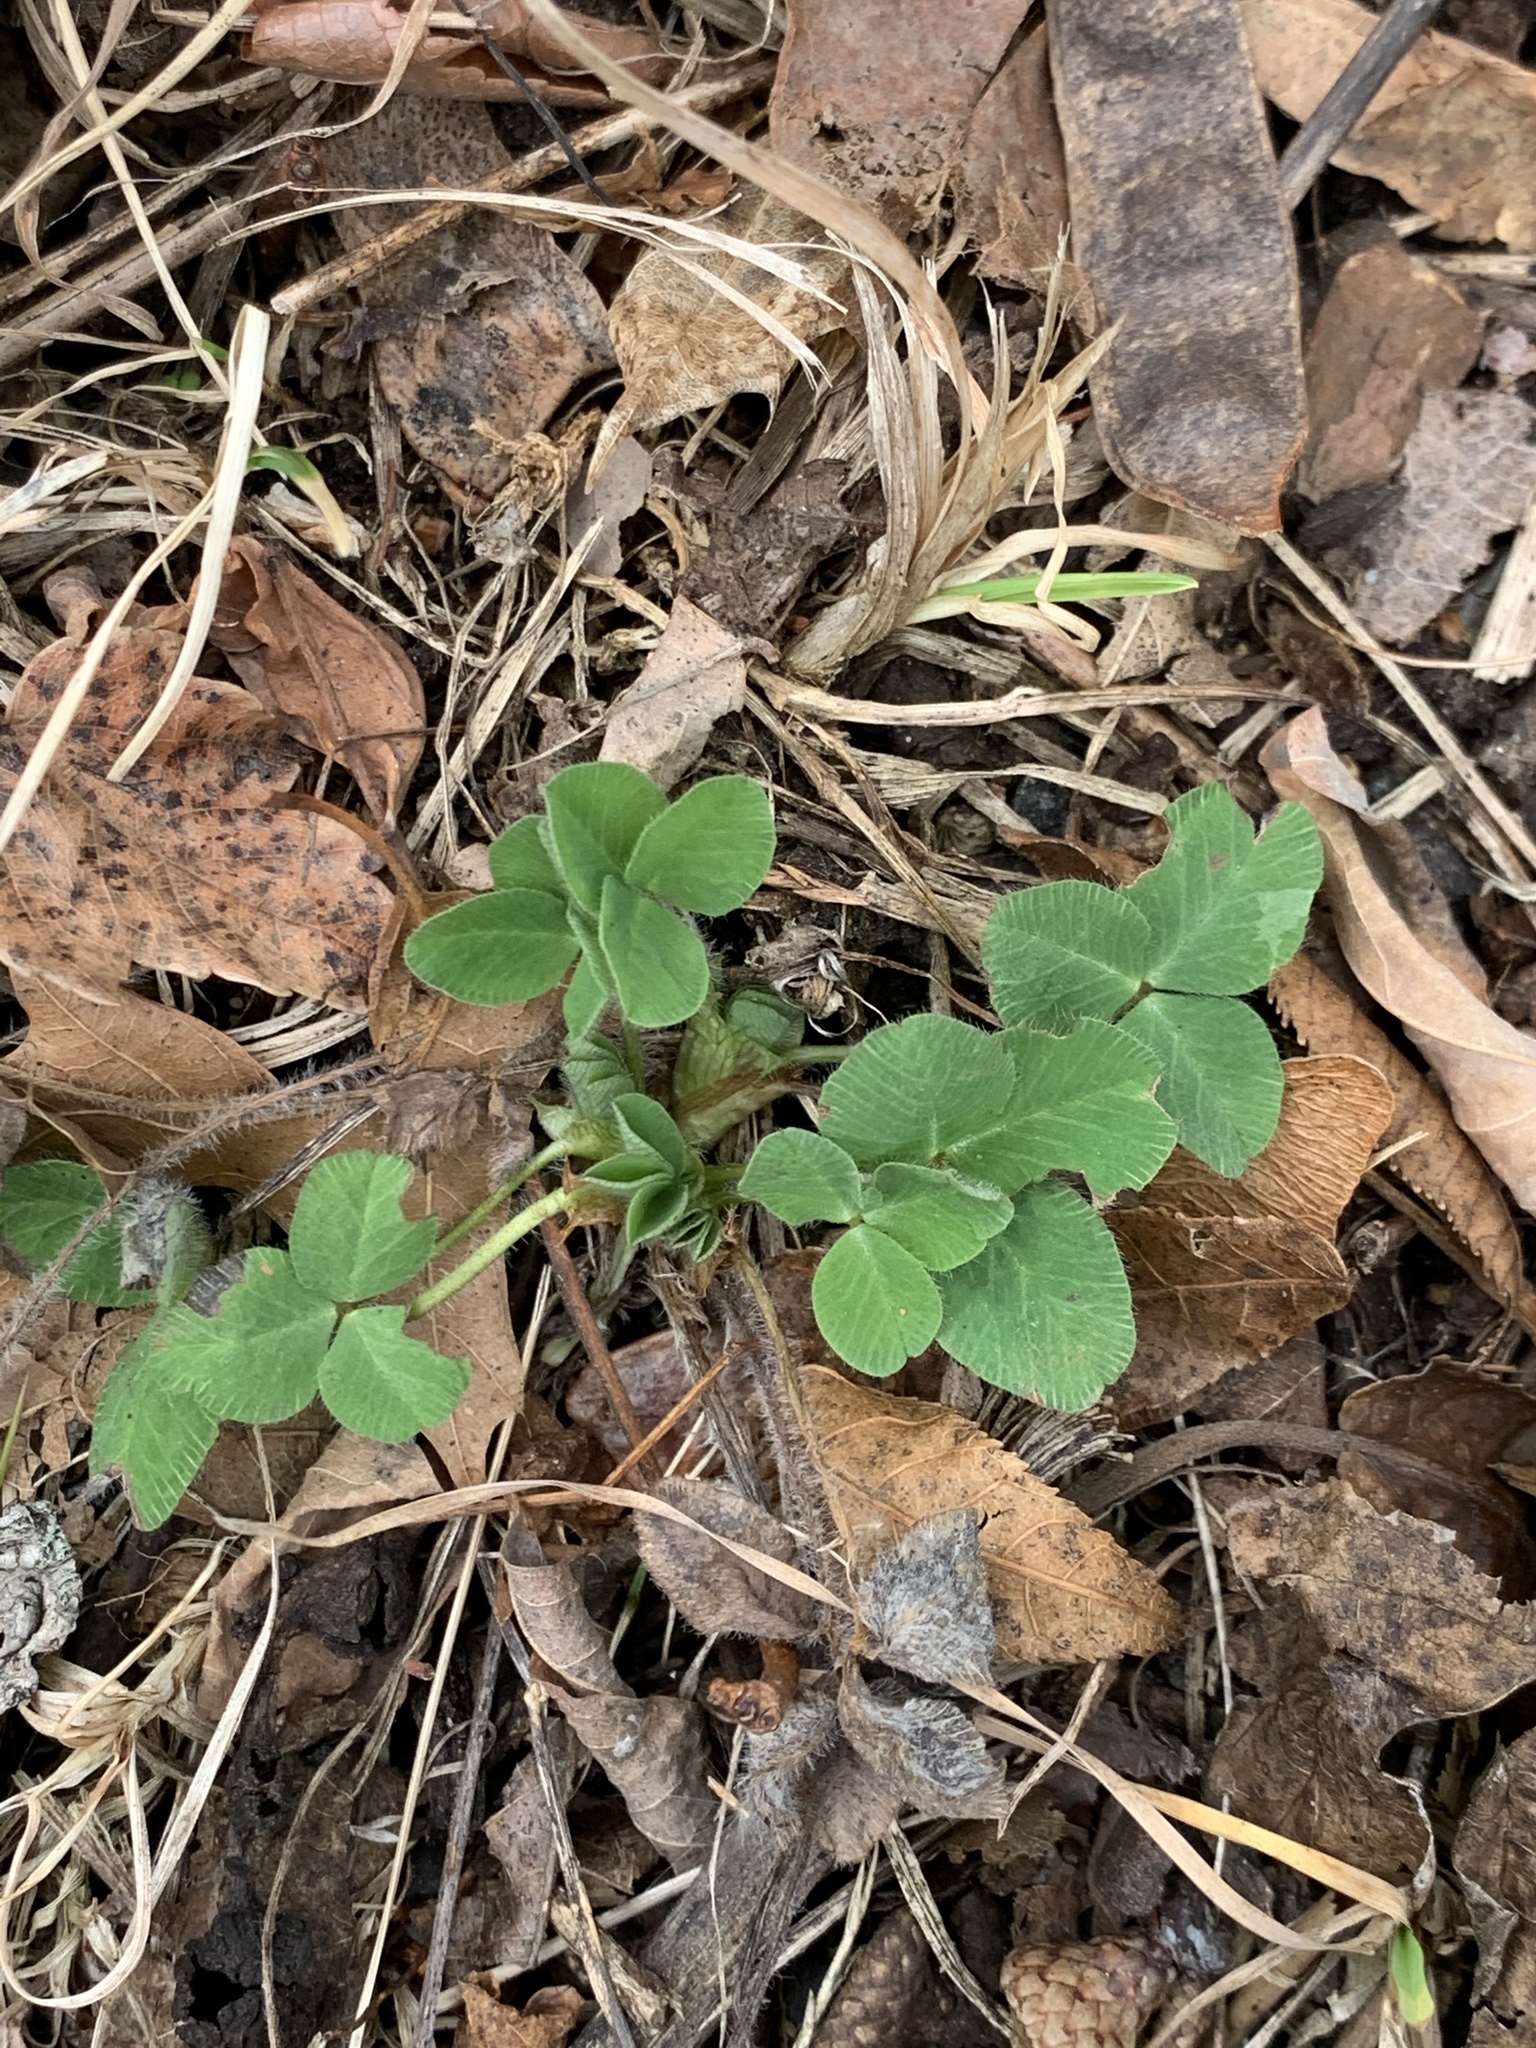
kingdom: Plantae
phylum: Tracheophyta
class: Magnoliopsida
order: Fabales
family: Fabaceae
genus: Trifolium
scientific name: Trifolium pratense
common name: Red clover
